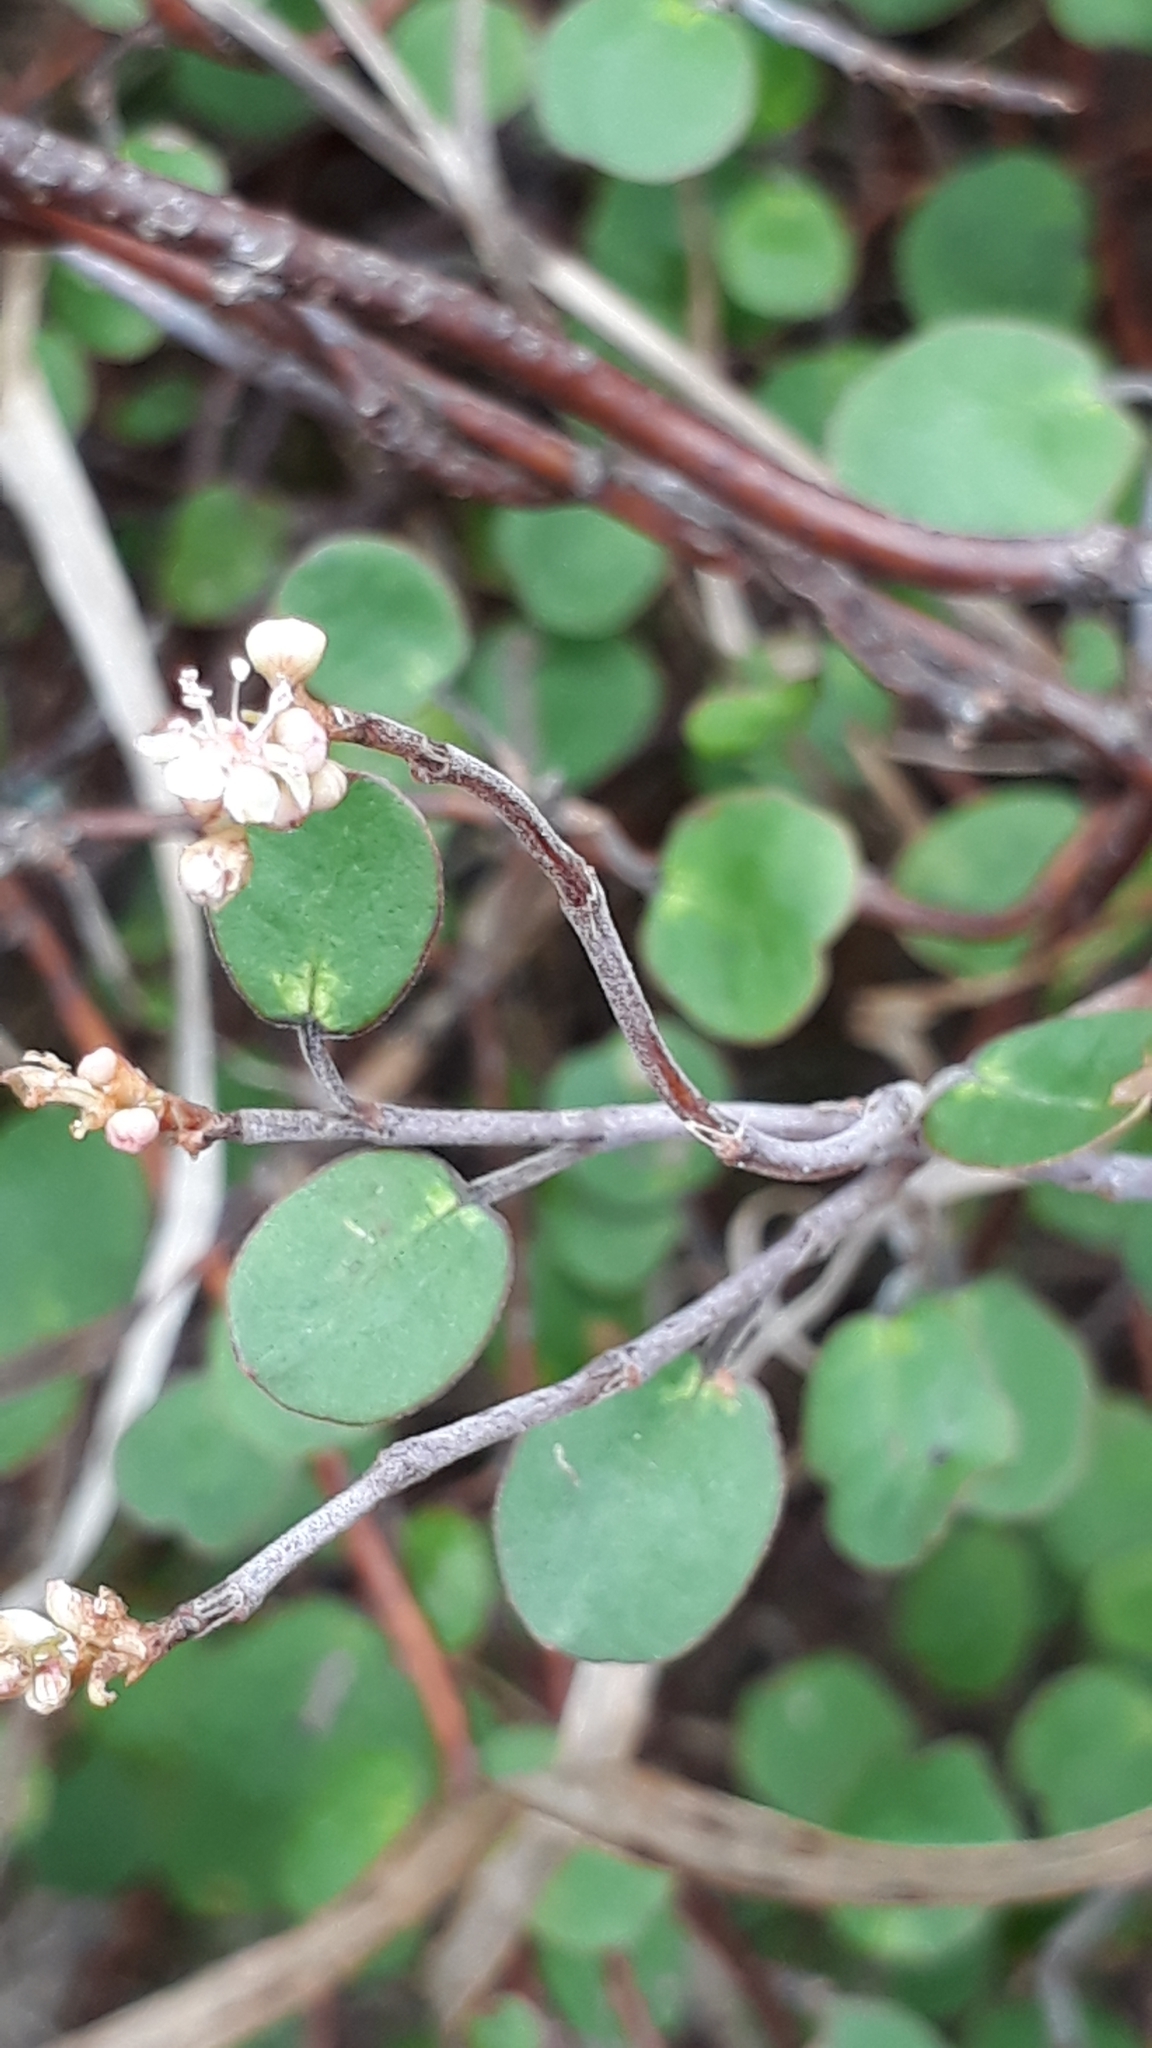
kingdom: Plantae
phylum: Tracheophyta
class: Magnoliopsida
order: Caryophyllales
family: Polygonaceae
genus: Muehlenbeckia
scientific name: Muehlenbeckia complexa
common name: Wireplant
